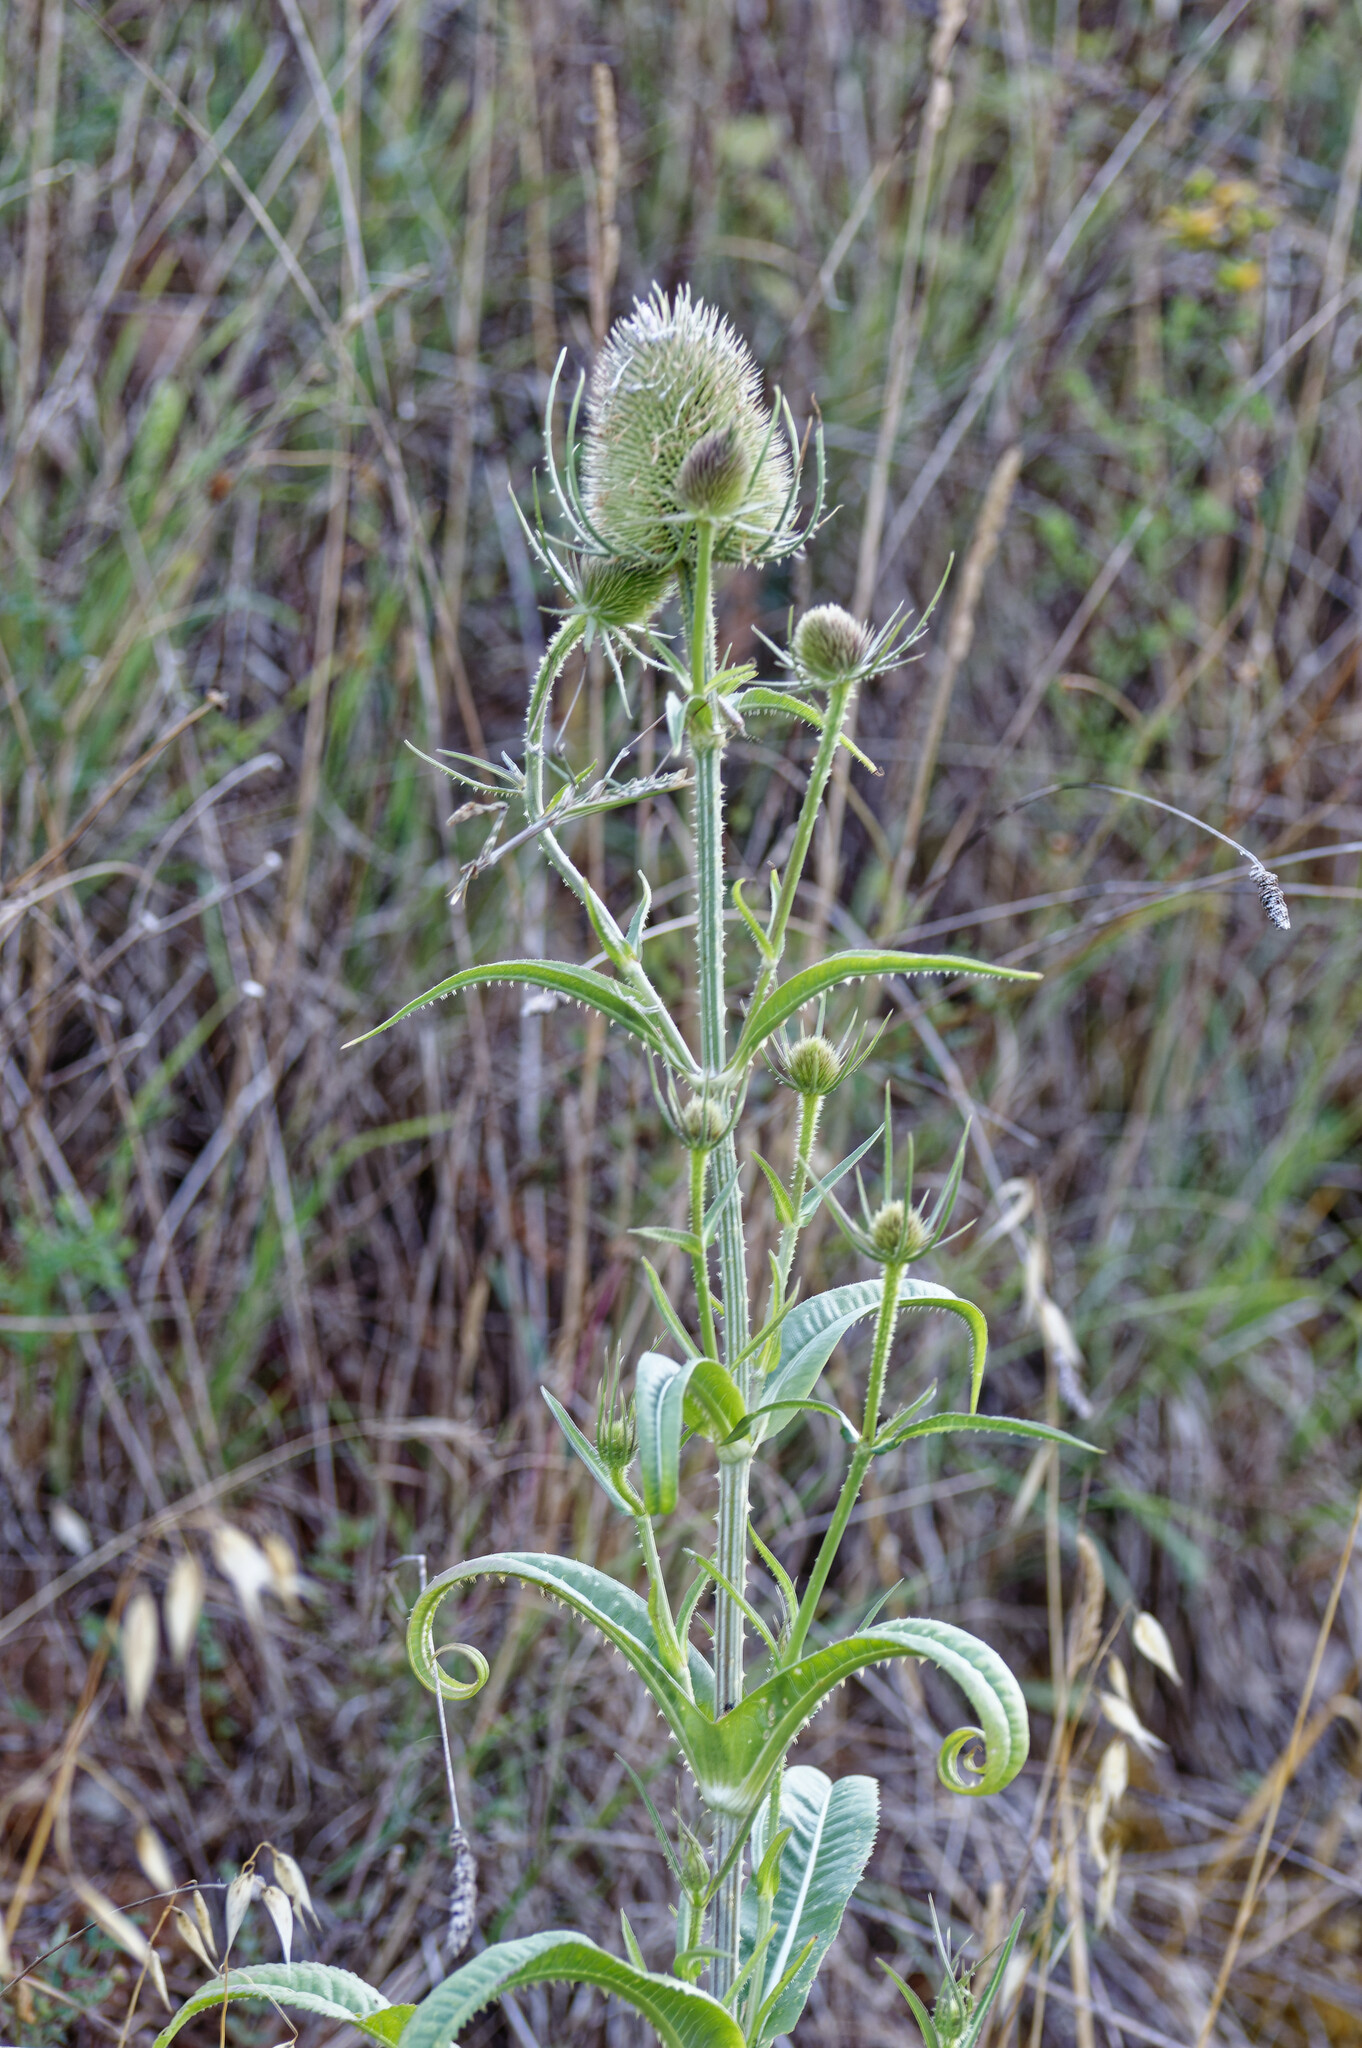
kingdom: Plantae
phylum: Tracheophyta
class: Magnoliopsida
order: Dipsacales
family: Caprifoliaceae
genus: Dipsacus
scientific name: Dipsacus fullonum
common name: Teasel
